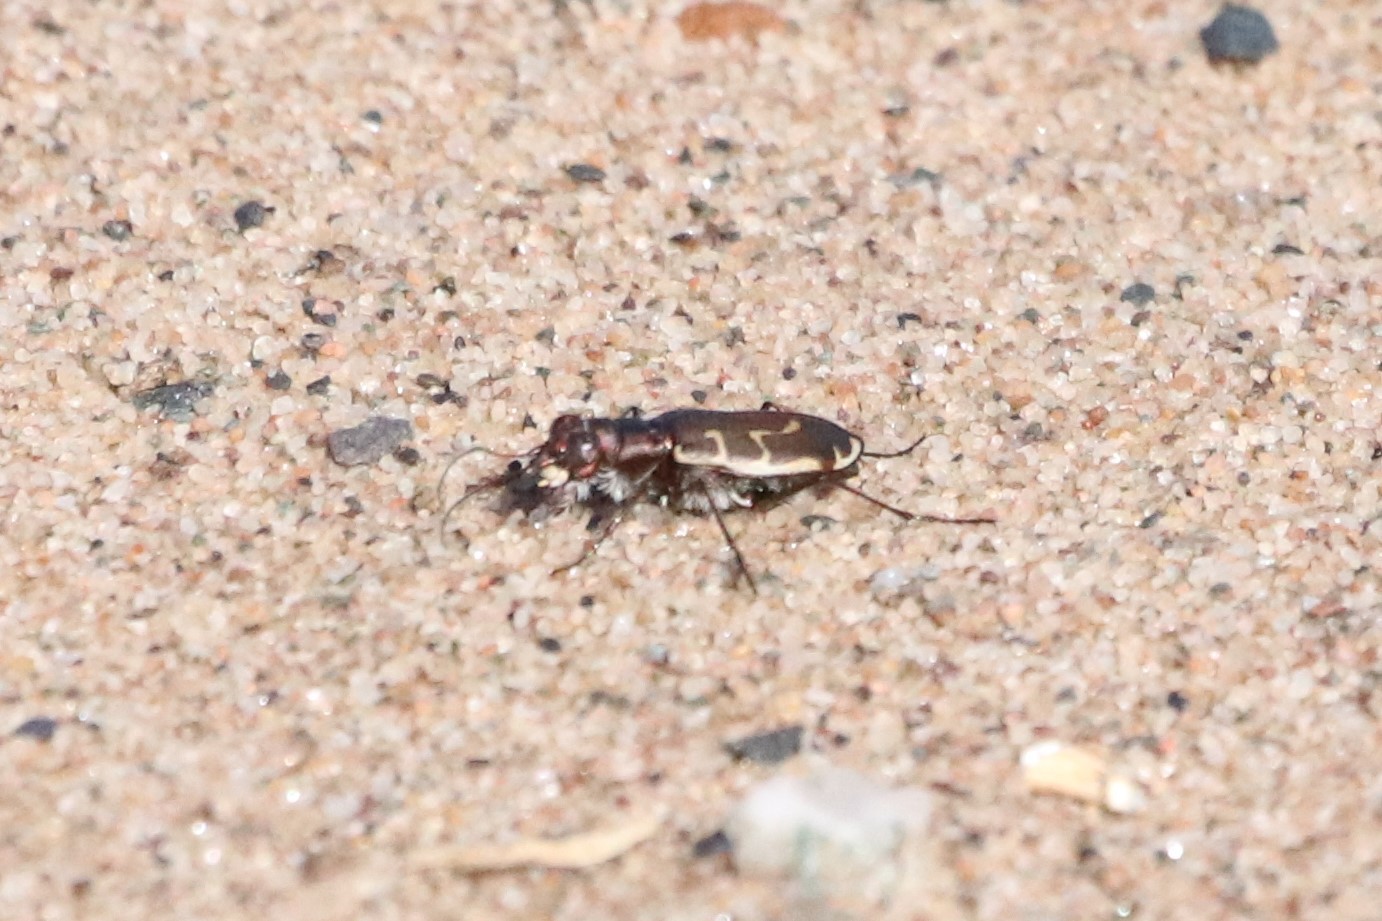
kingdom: Animalia
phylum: Arthropoda
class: Insecta
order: Coleoptera
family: Carabidae
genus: Cicindela
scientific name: Cicindela hirticollis
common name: Hairy-necked tiger beetle
